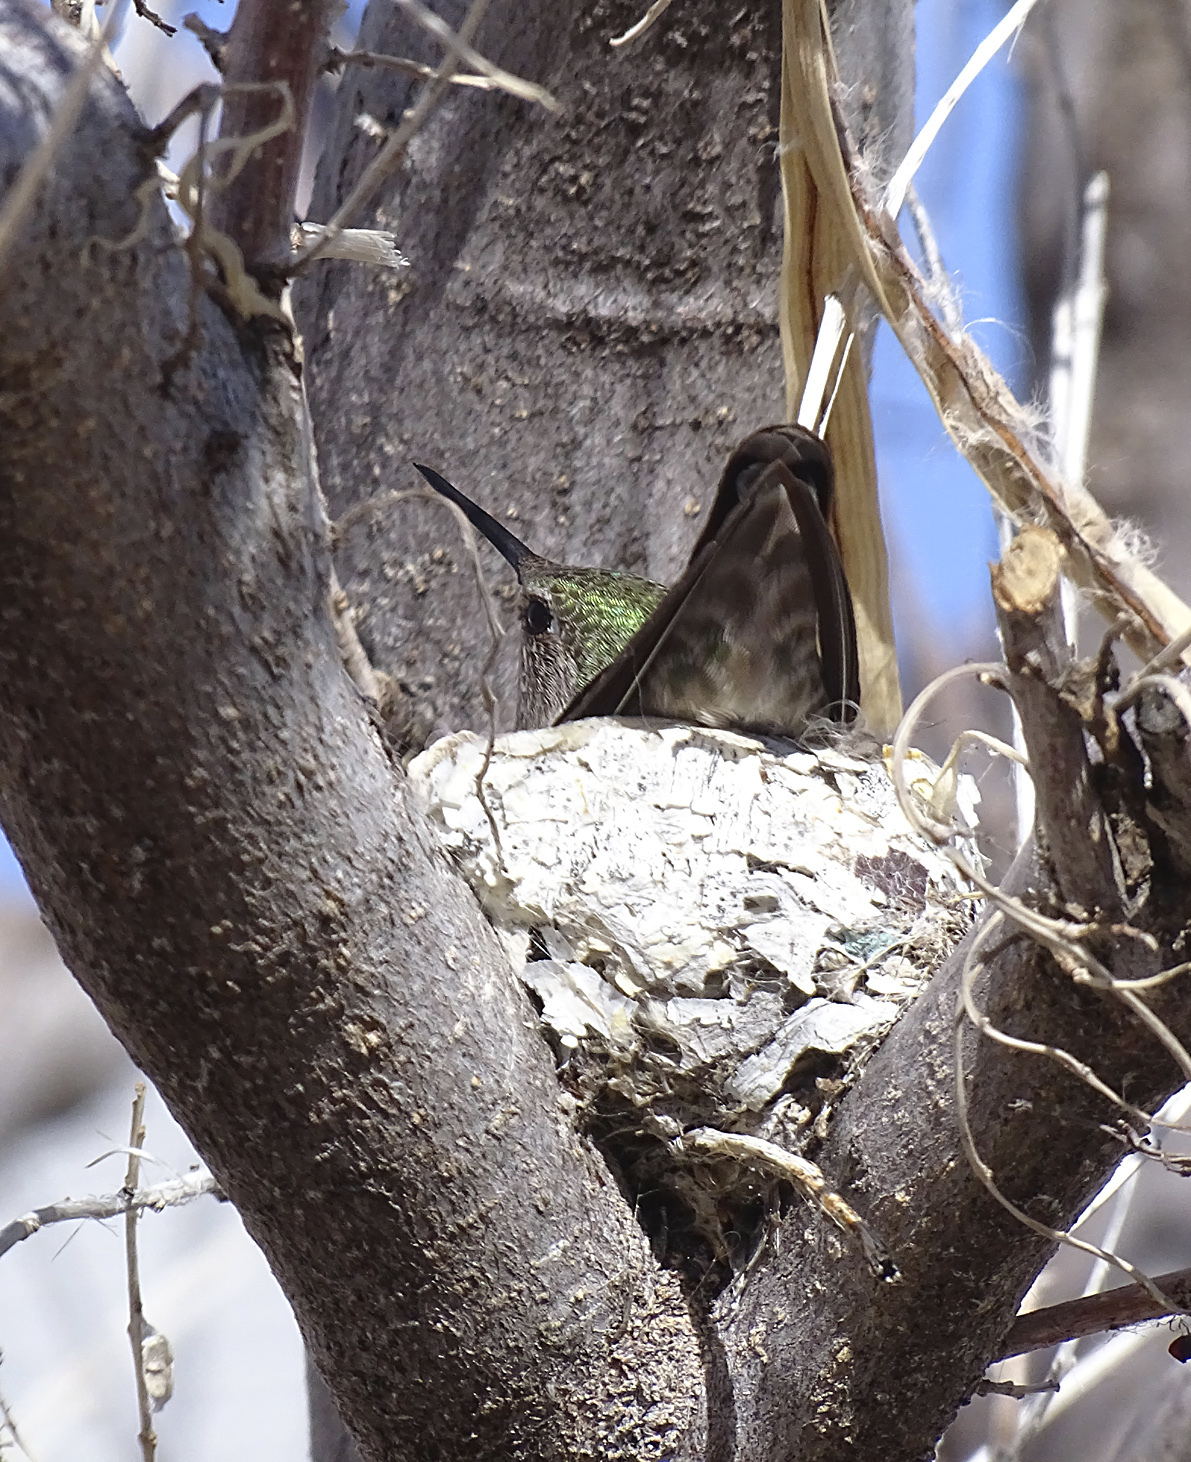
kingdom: Animalia
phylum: Chordata
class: Aves
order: Apodiformes
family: Trochilidae
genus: Calypte
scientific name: Calypte anna
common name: Anna's hummingbird
